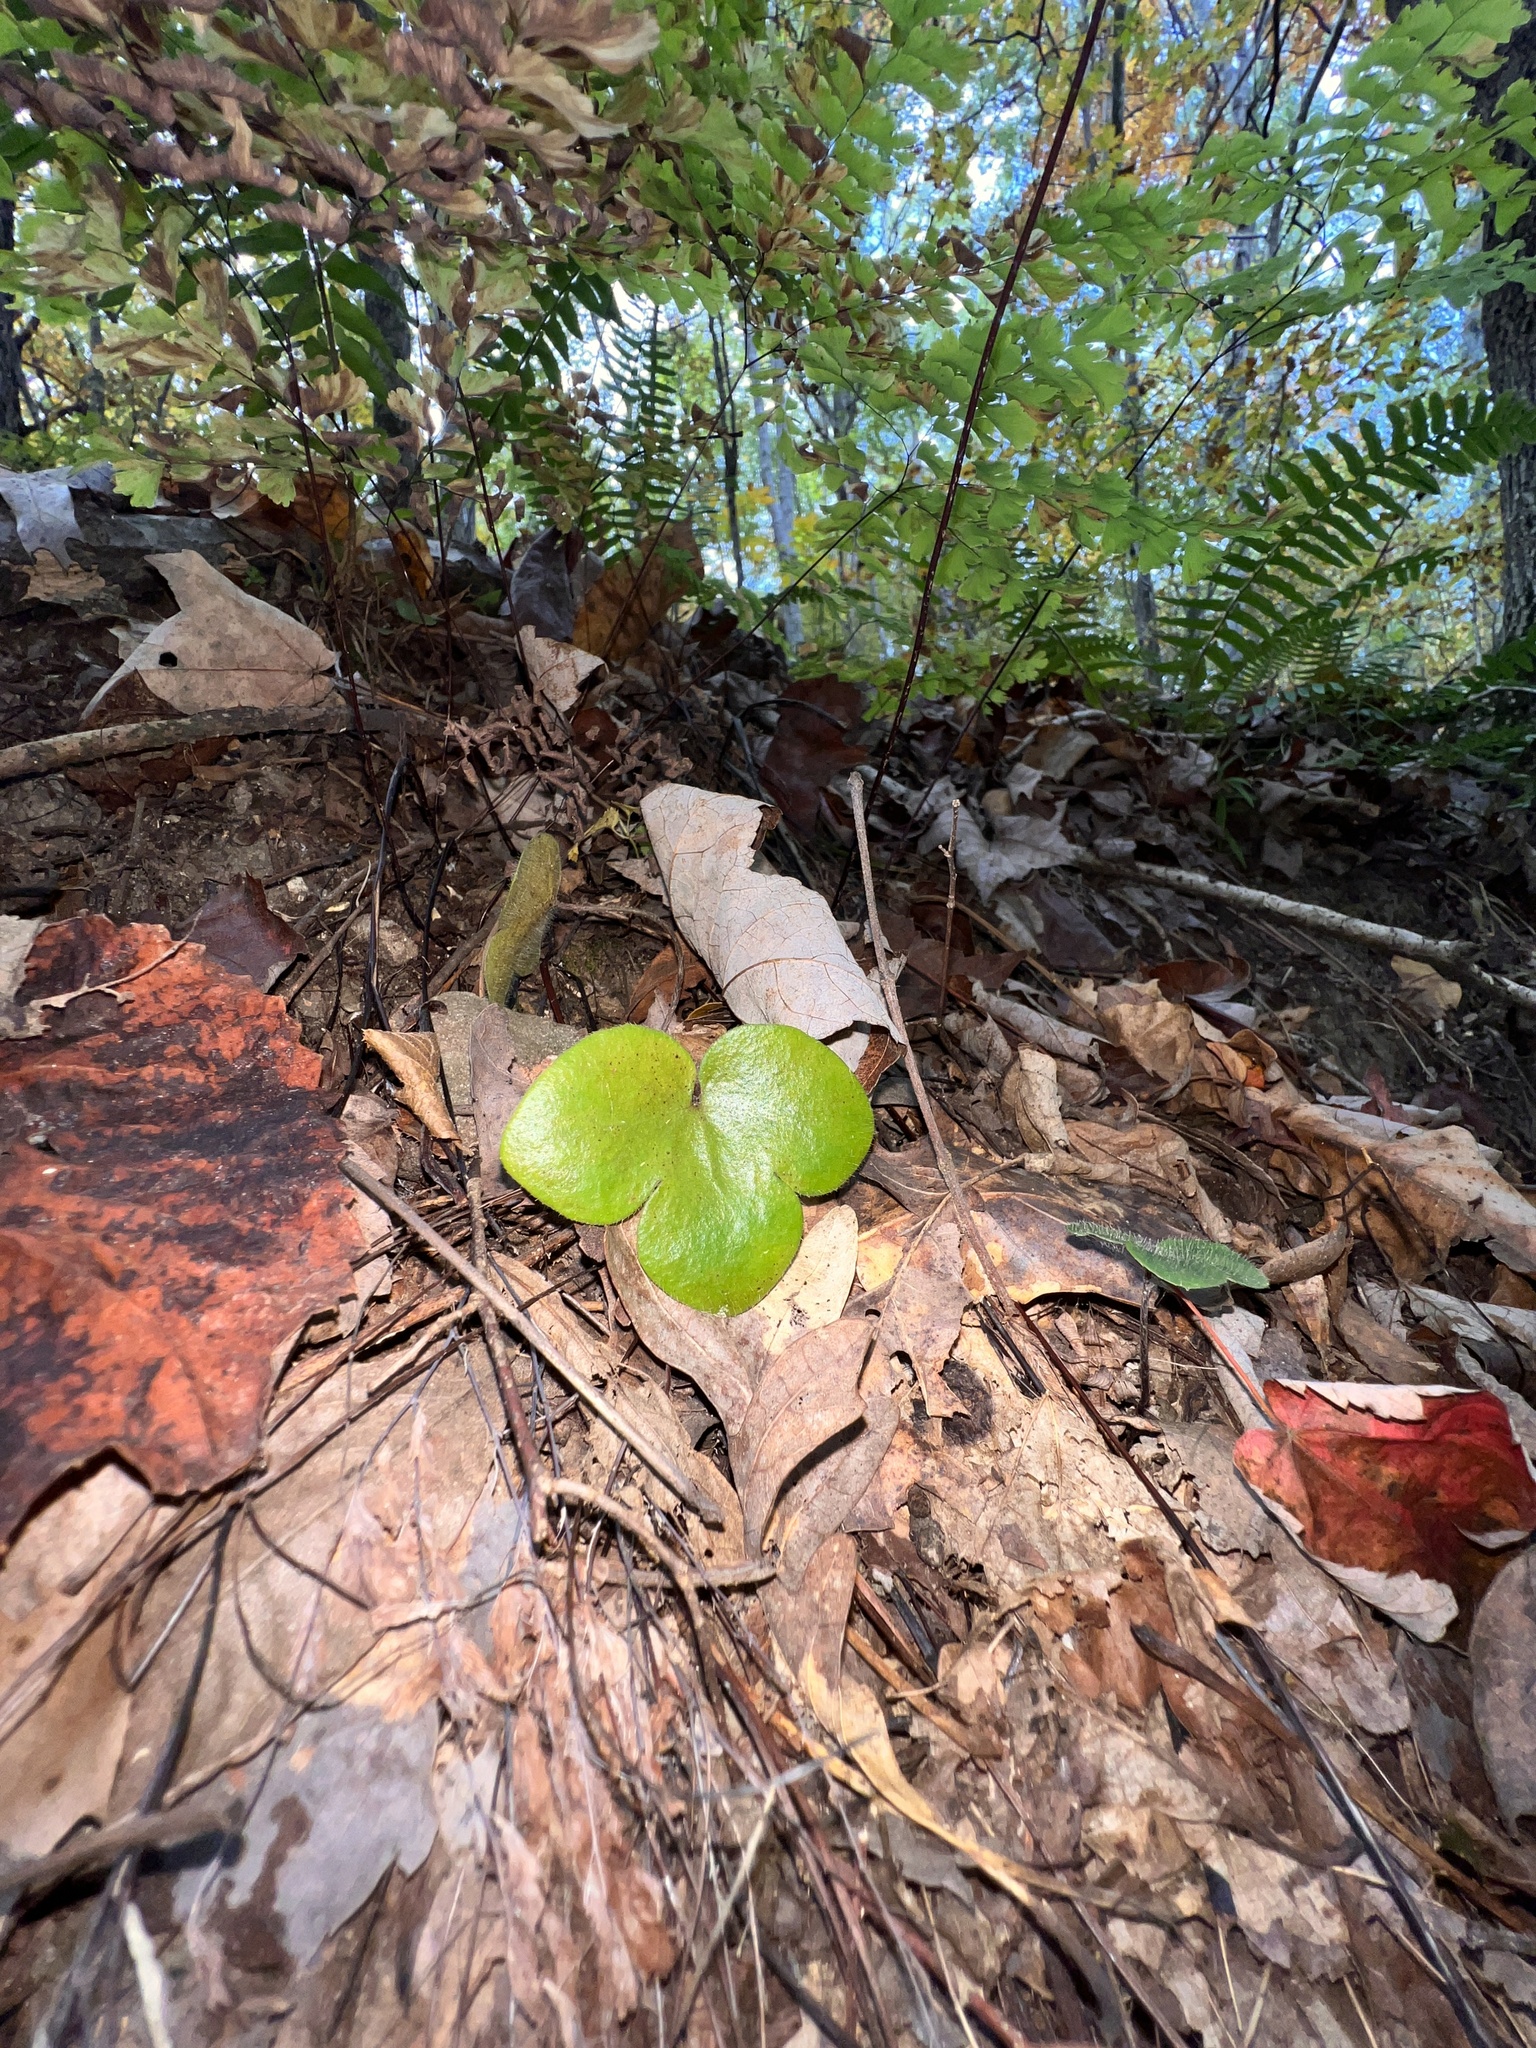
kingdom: Plantae
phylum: Tracheophyta
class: Magnoliopsida
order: Ranunculales
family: Ranunculaceae
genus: Hepatica
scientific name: Hepatica americana
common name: American hepatica
